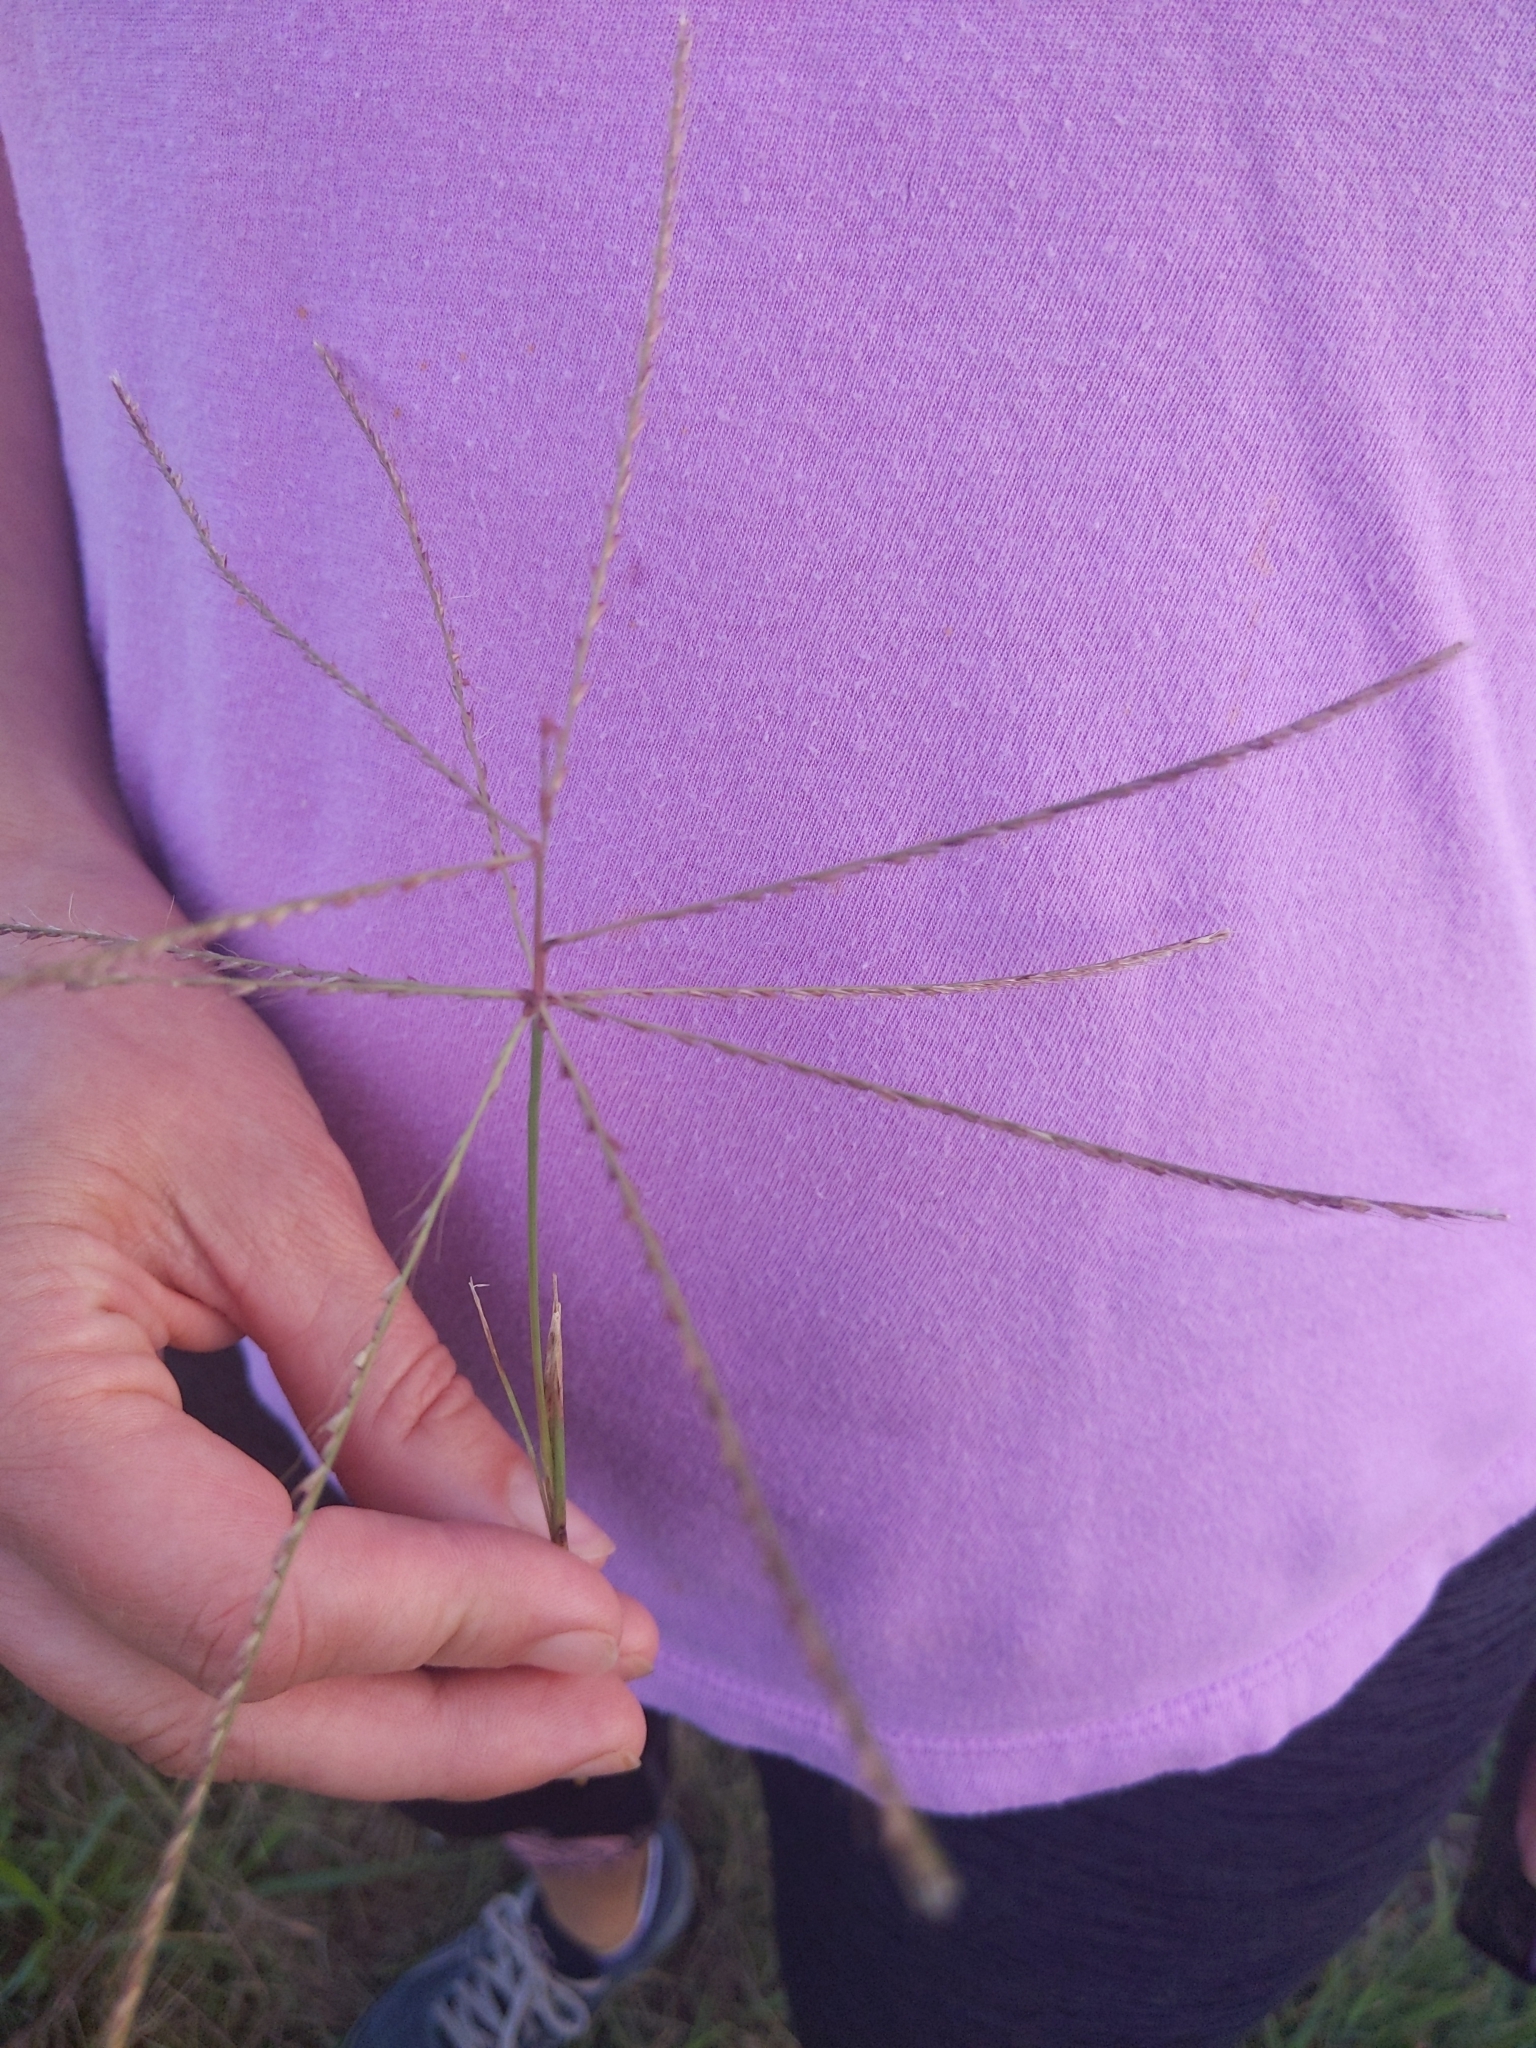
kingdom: Plantae
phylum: Tracheophyta
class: Liliopsida
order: Poales
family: Poaceae
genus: Chloris
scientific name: Chloris verticillata
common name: Tumble windmill grass
